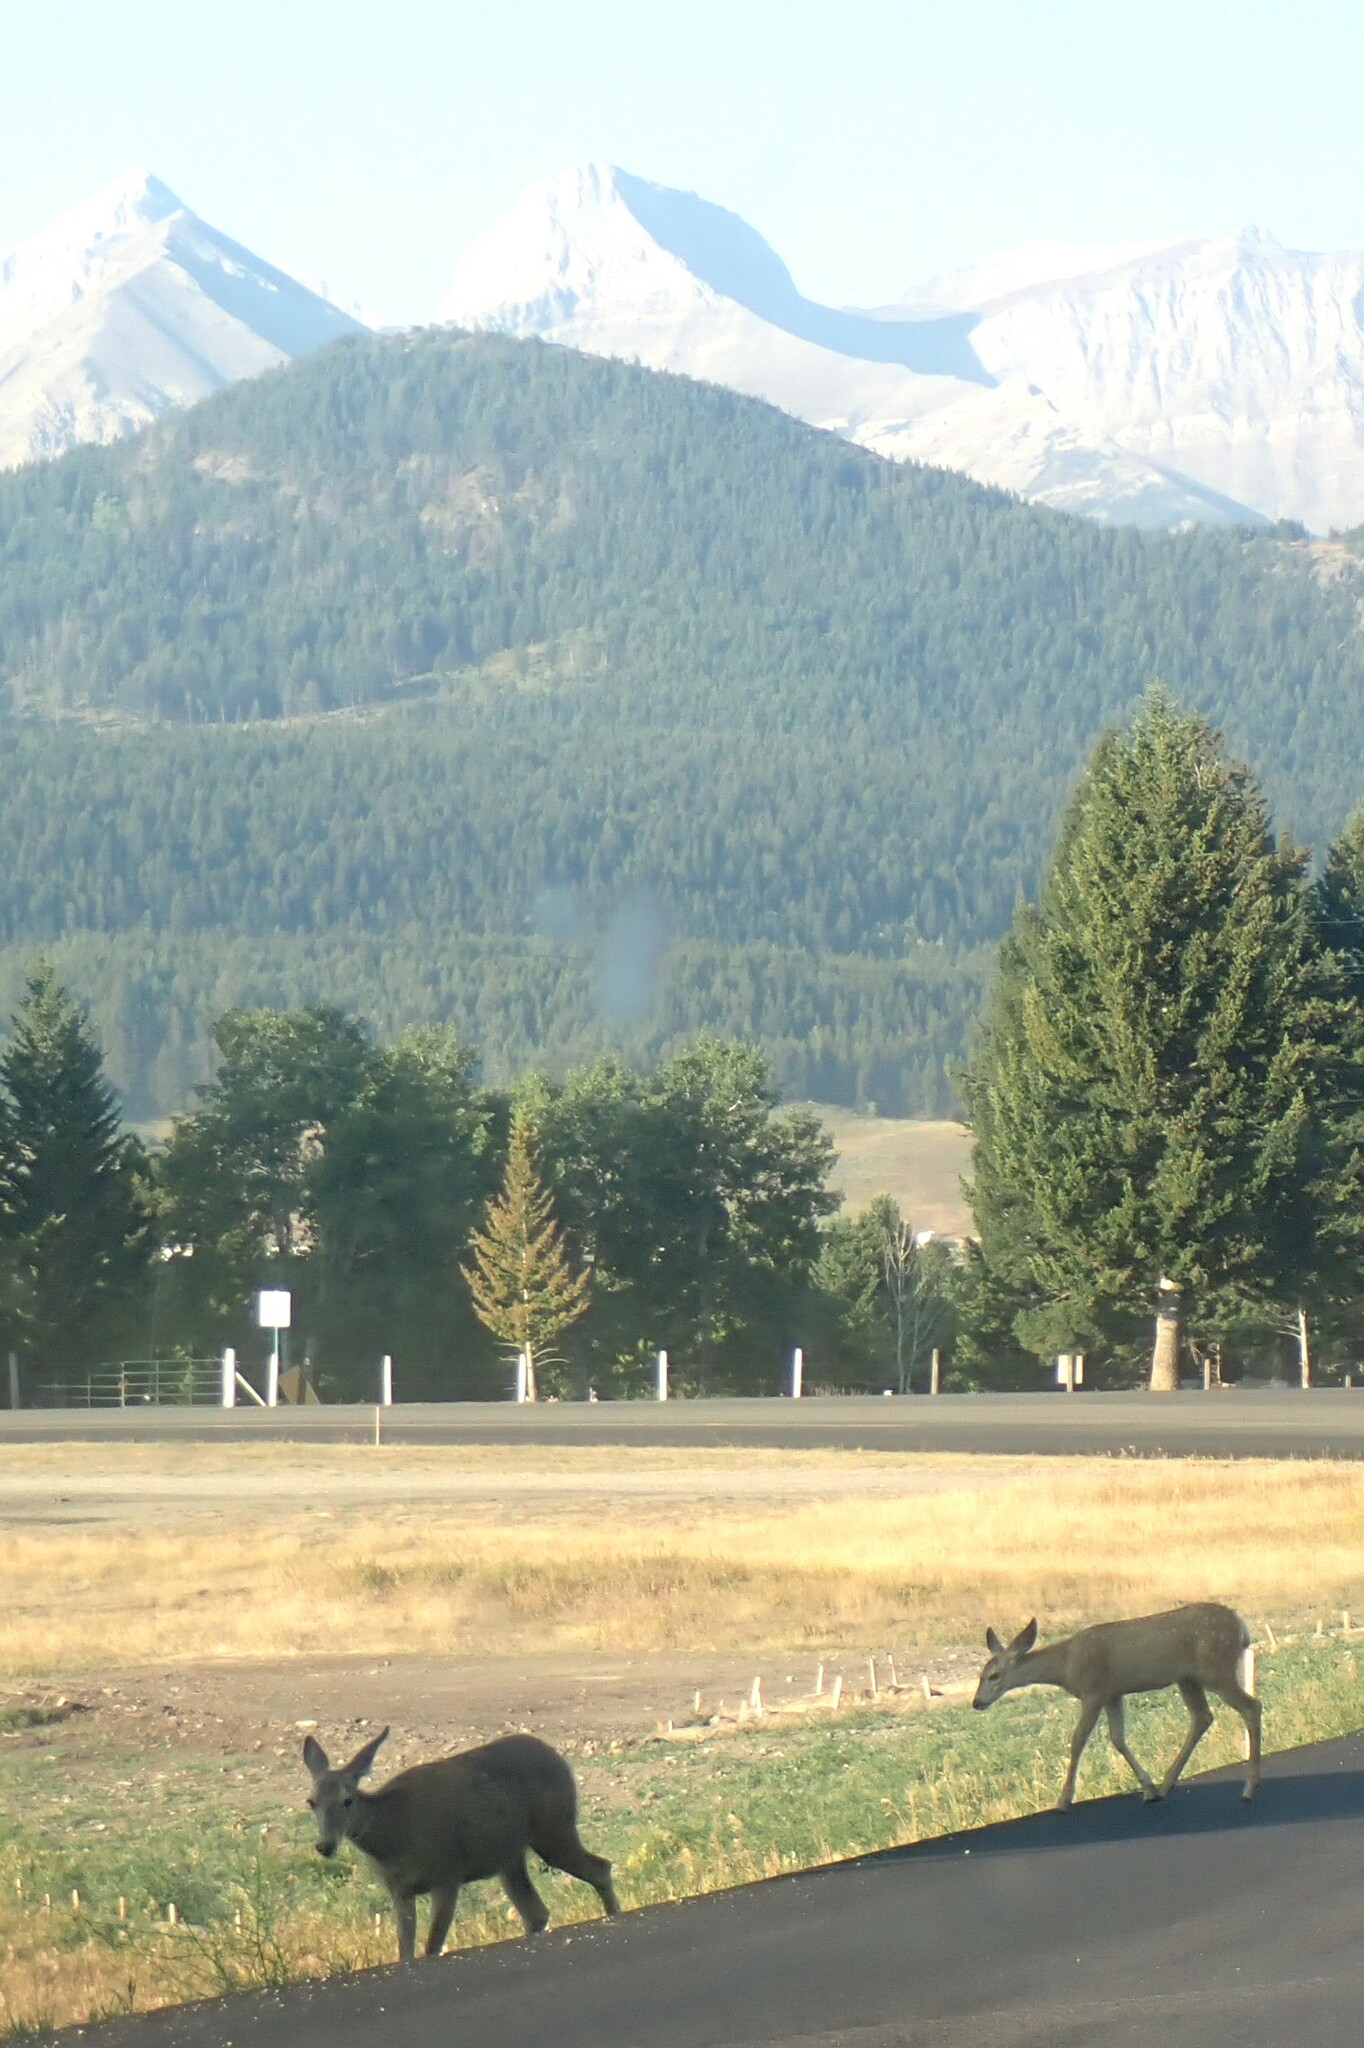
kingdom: Animalia
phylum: Chordata
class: Mammalia
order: Artiodactyla
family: Cervidae
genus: Odocoileus
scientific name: Odocoileus hemionus
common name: Mule deer
